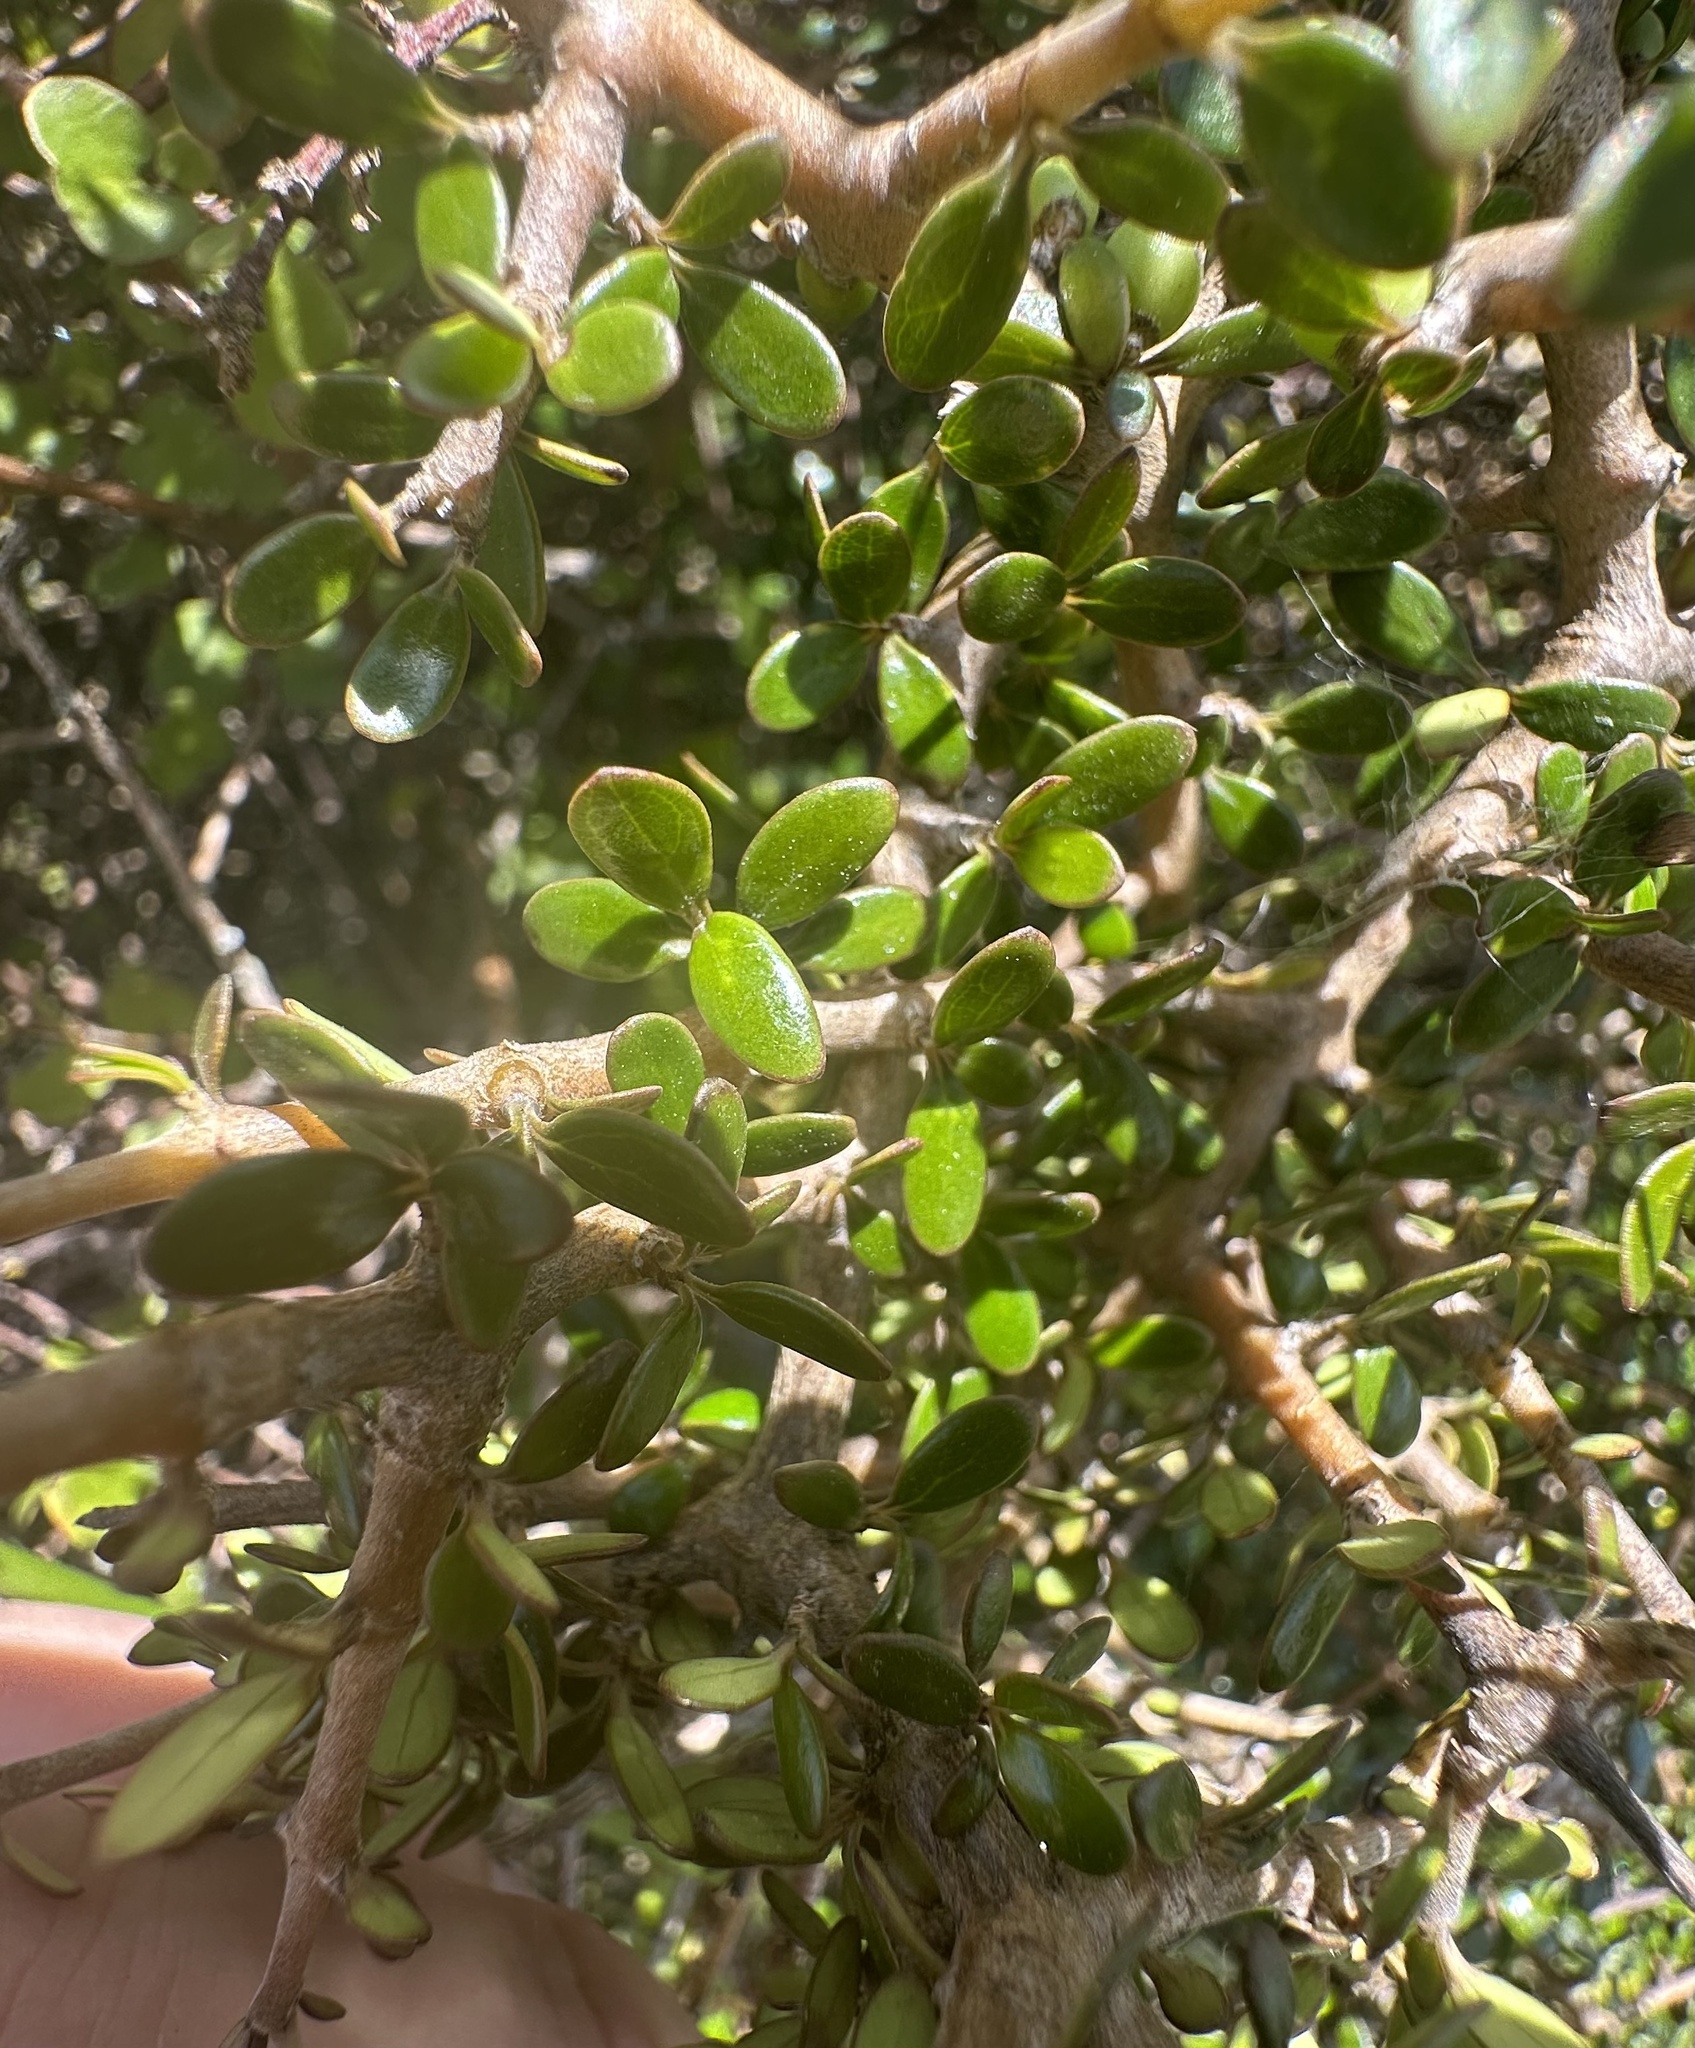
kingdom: Plantae
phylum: Tracheophyta
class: Magnoliopsida
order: Gentianales
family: Rubiaceae
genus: Coprosma
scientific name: Coprosma propinqua
